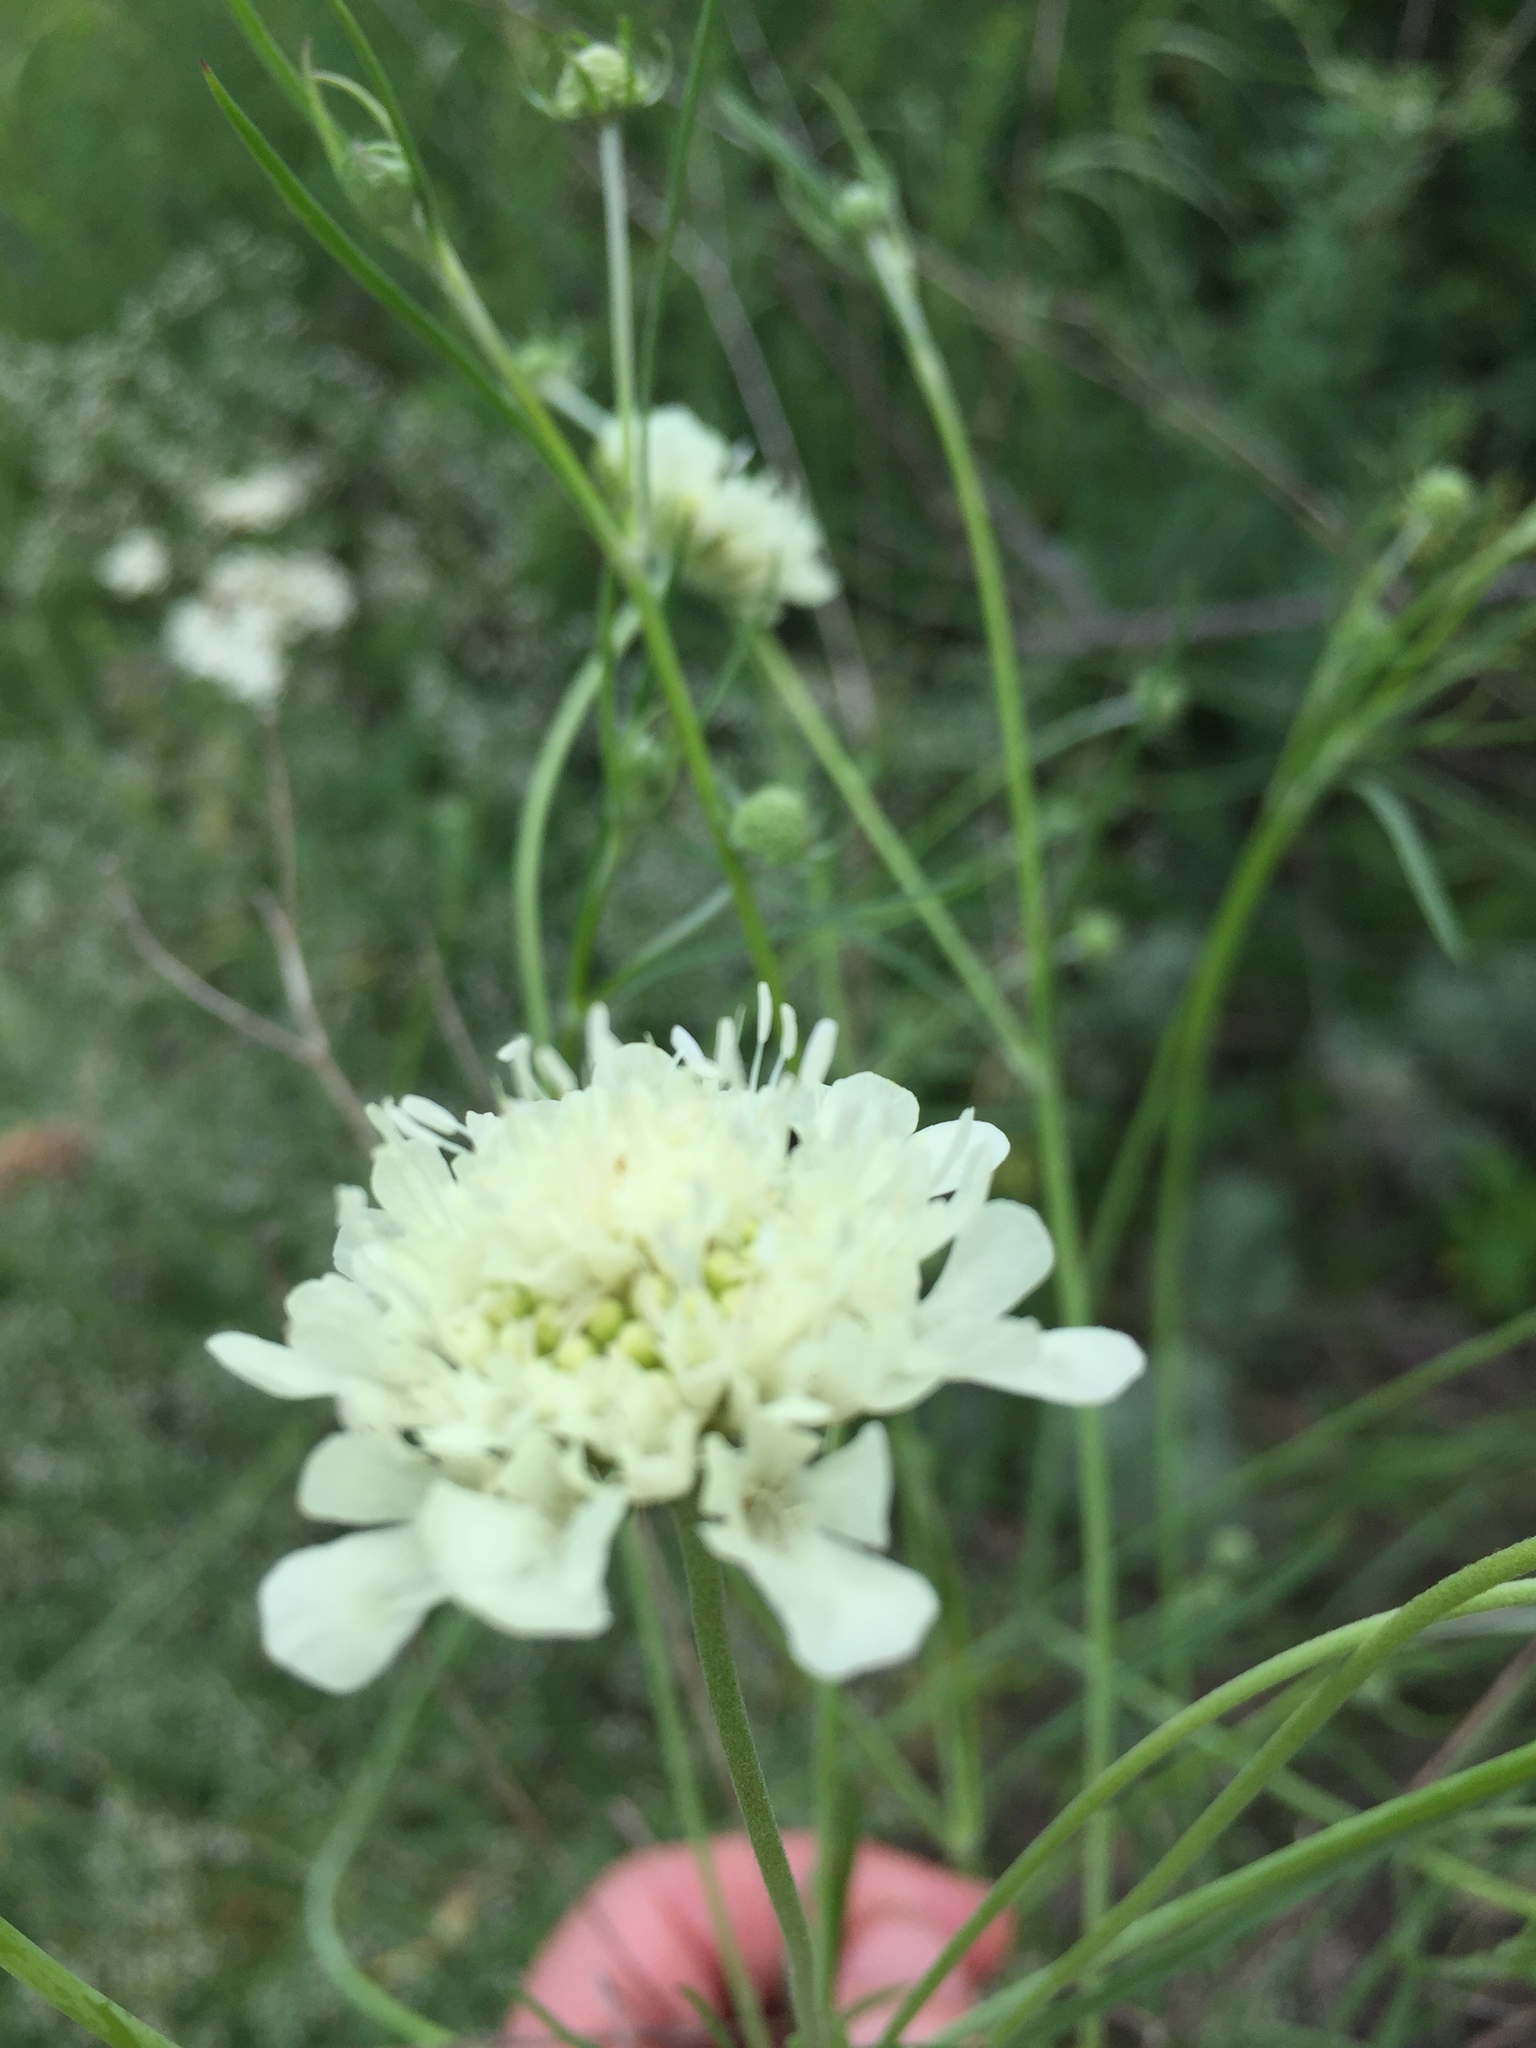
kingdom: Plantae
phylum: Tracheophyta
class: Magnoliopsida
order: Dipsacales
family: Caprifoliaceae
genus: Scabiosa
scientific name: Scabiosa ochroleuca
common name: Cream pincushions
